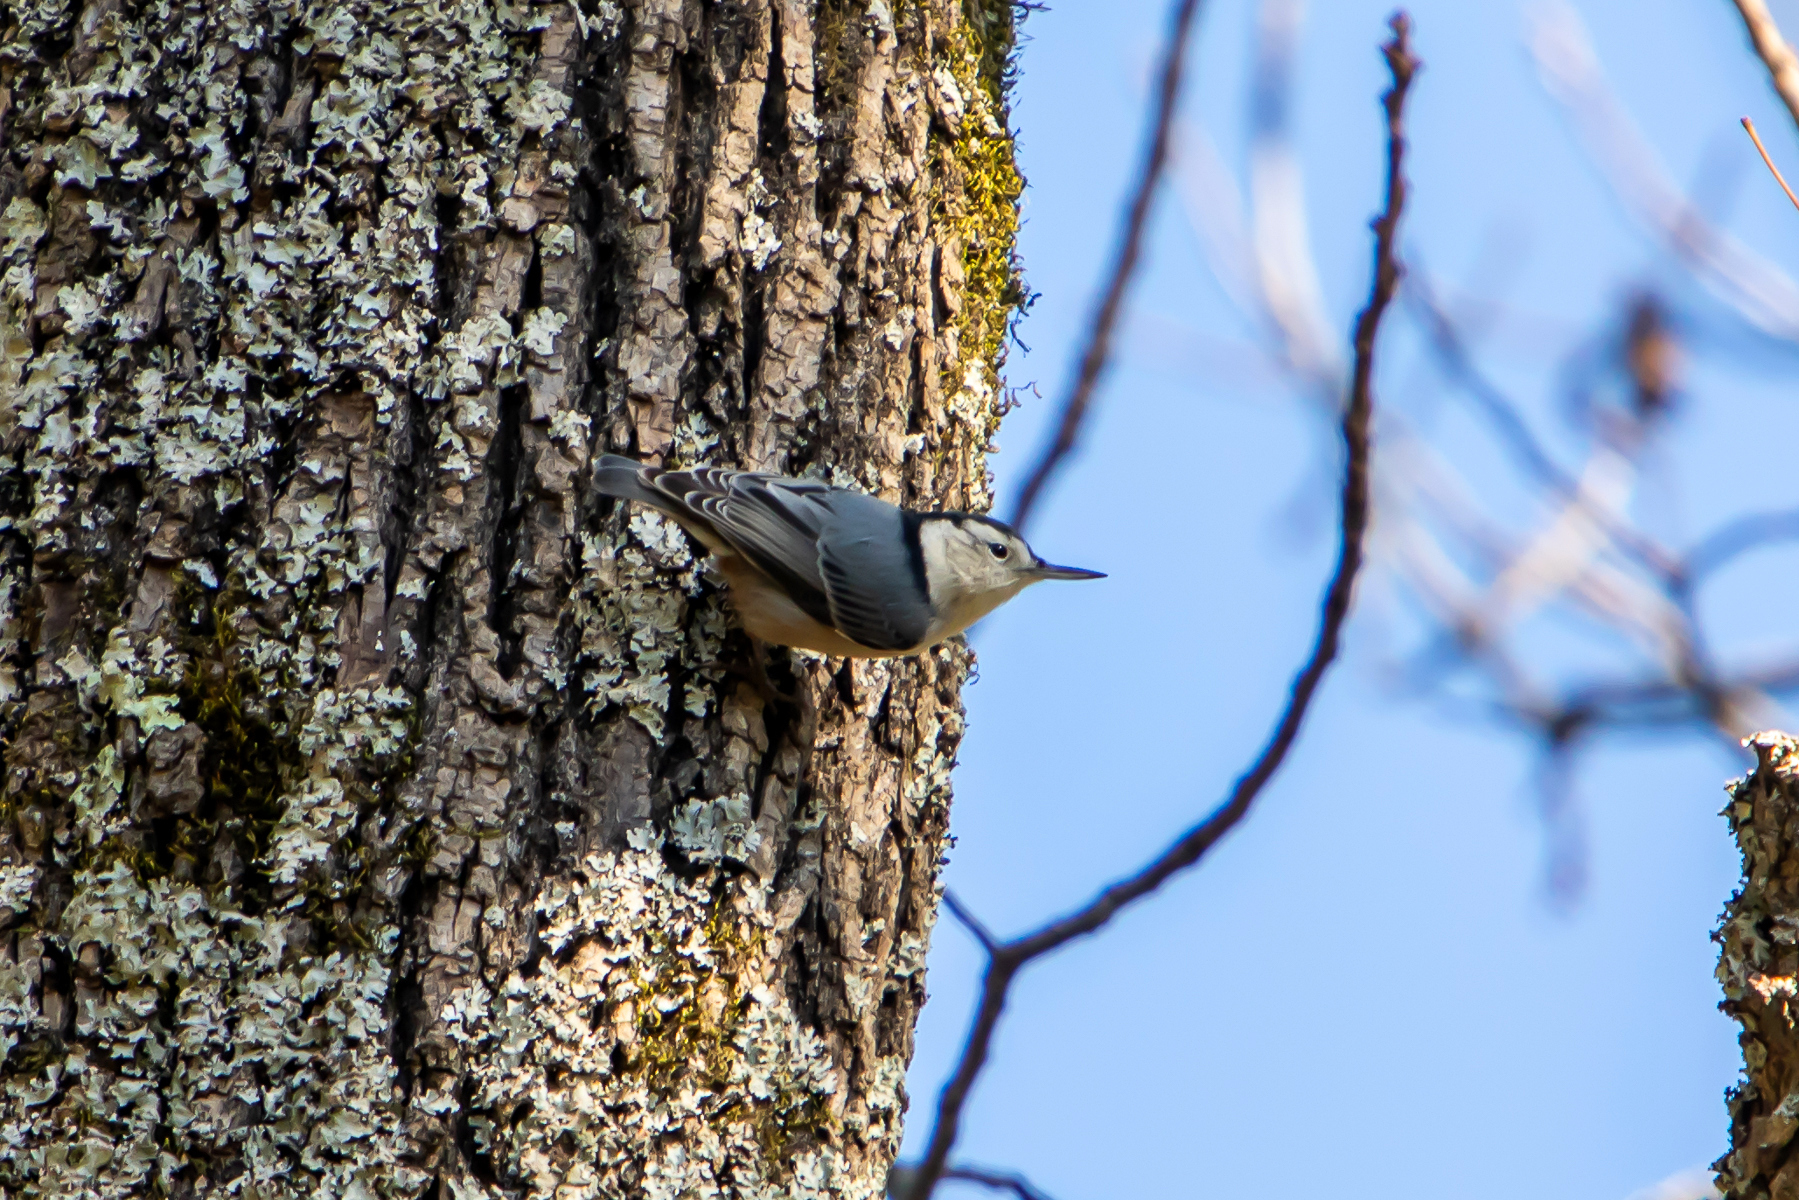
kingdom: Animalia
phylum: Chordata
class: Aves
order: Passeriformes
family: Sittidae
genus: Sitta
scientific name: Sitta carolinensis
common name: White-breasted nuthatch
